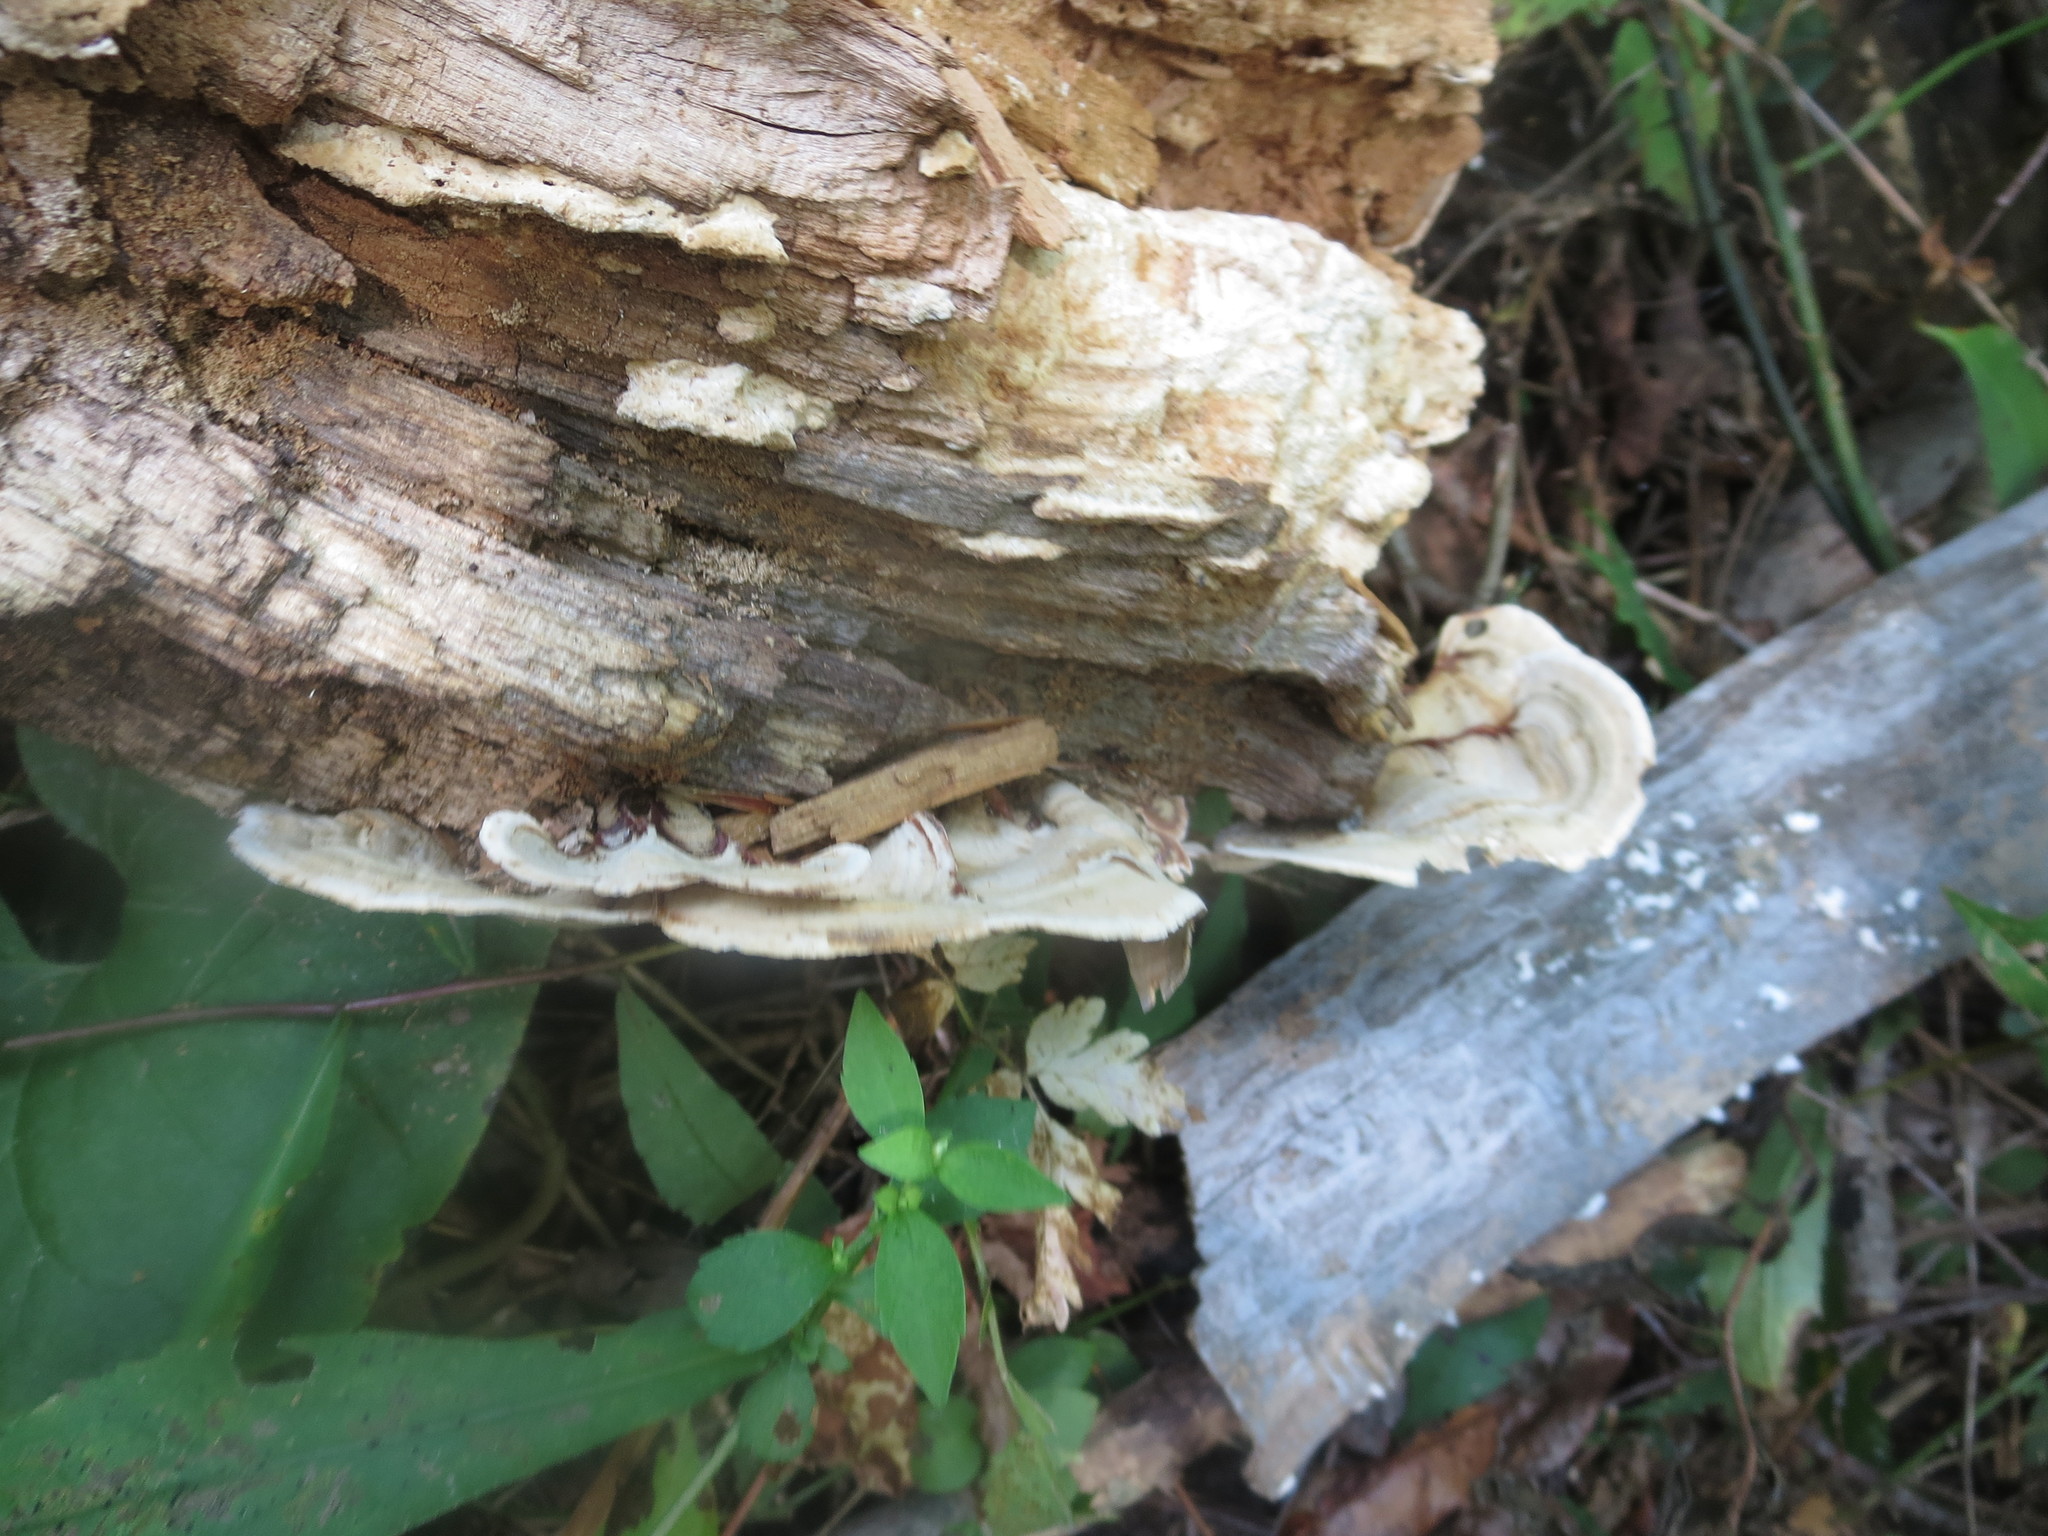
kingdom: Fungi
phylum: Basidiomycota
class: Agaricomycetes
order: Russulales
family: Stereaceae
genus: Stereum
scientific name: Stereum ostrea
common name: False turkeytail
